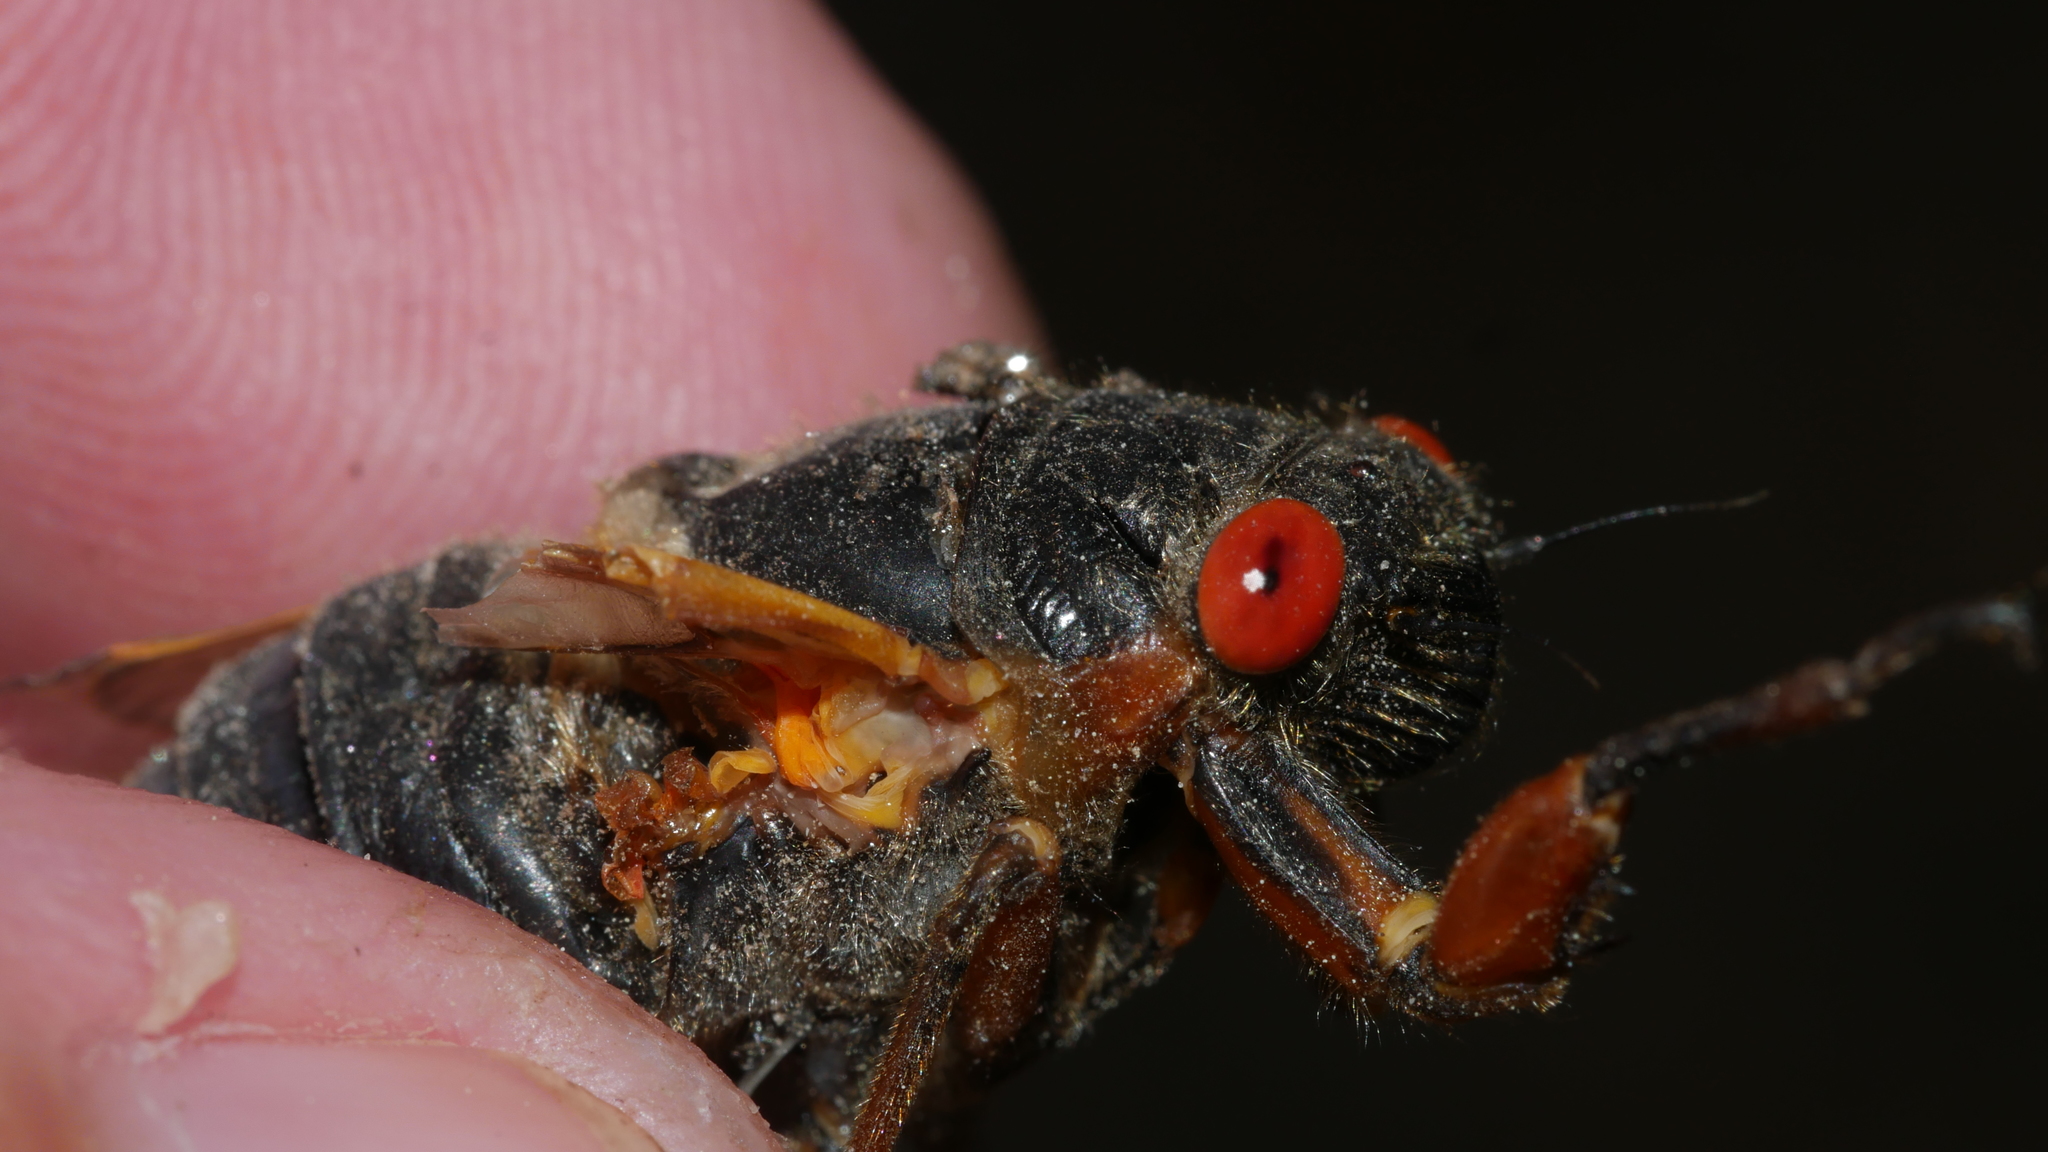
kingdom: Animalia
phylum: Arthropoda
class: Insecta
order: Hemiptera
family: Cicadidae
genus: Magicicada
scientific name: Magicicada septendecim
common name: Periodical cicada
